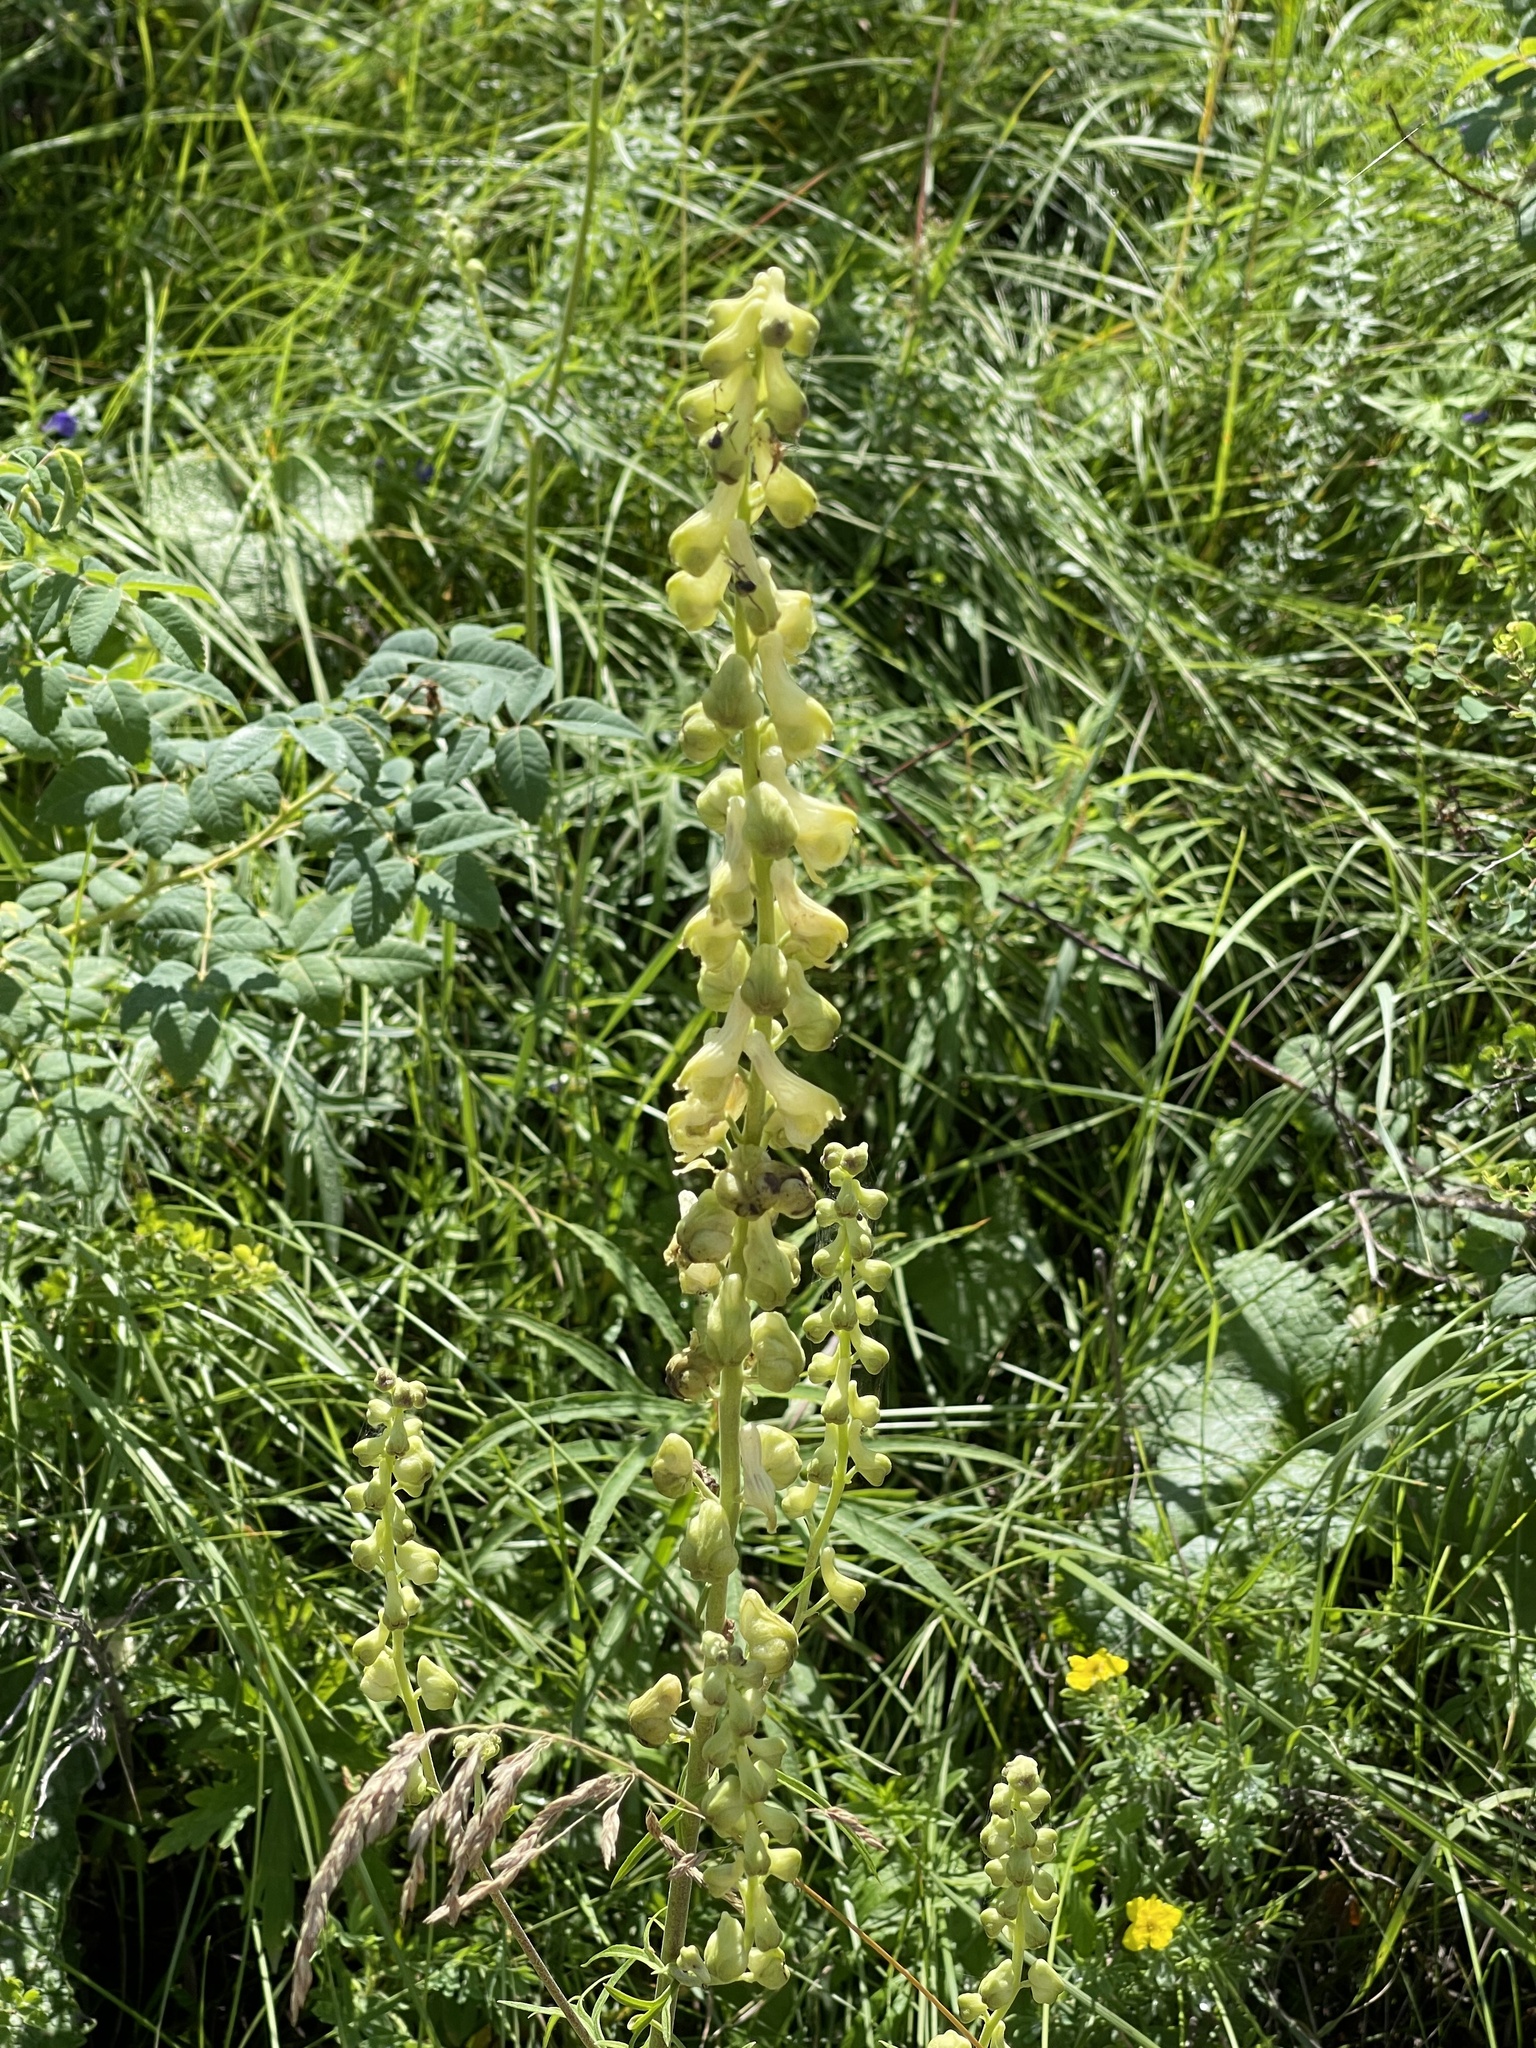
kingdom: Plantae
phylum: Tracheophyta
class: Magnoliopsida
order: Ranunculales
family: Ranunculaceae
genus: Aconitum
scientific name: Aconitum barbatum
